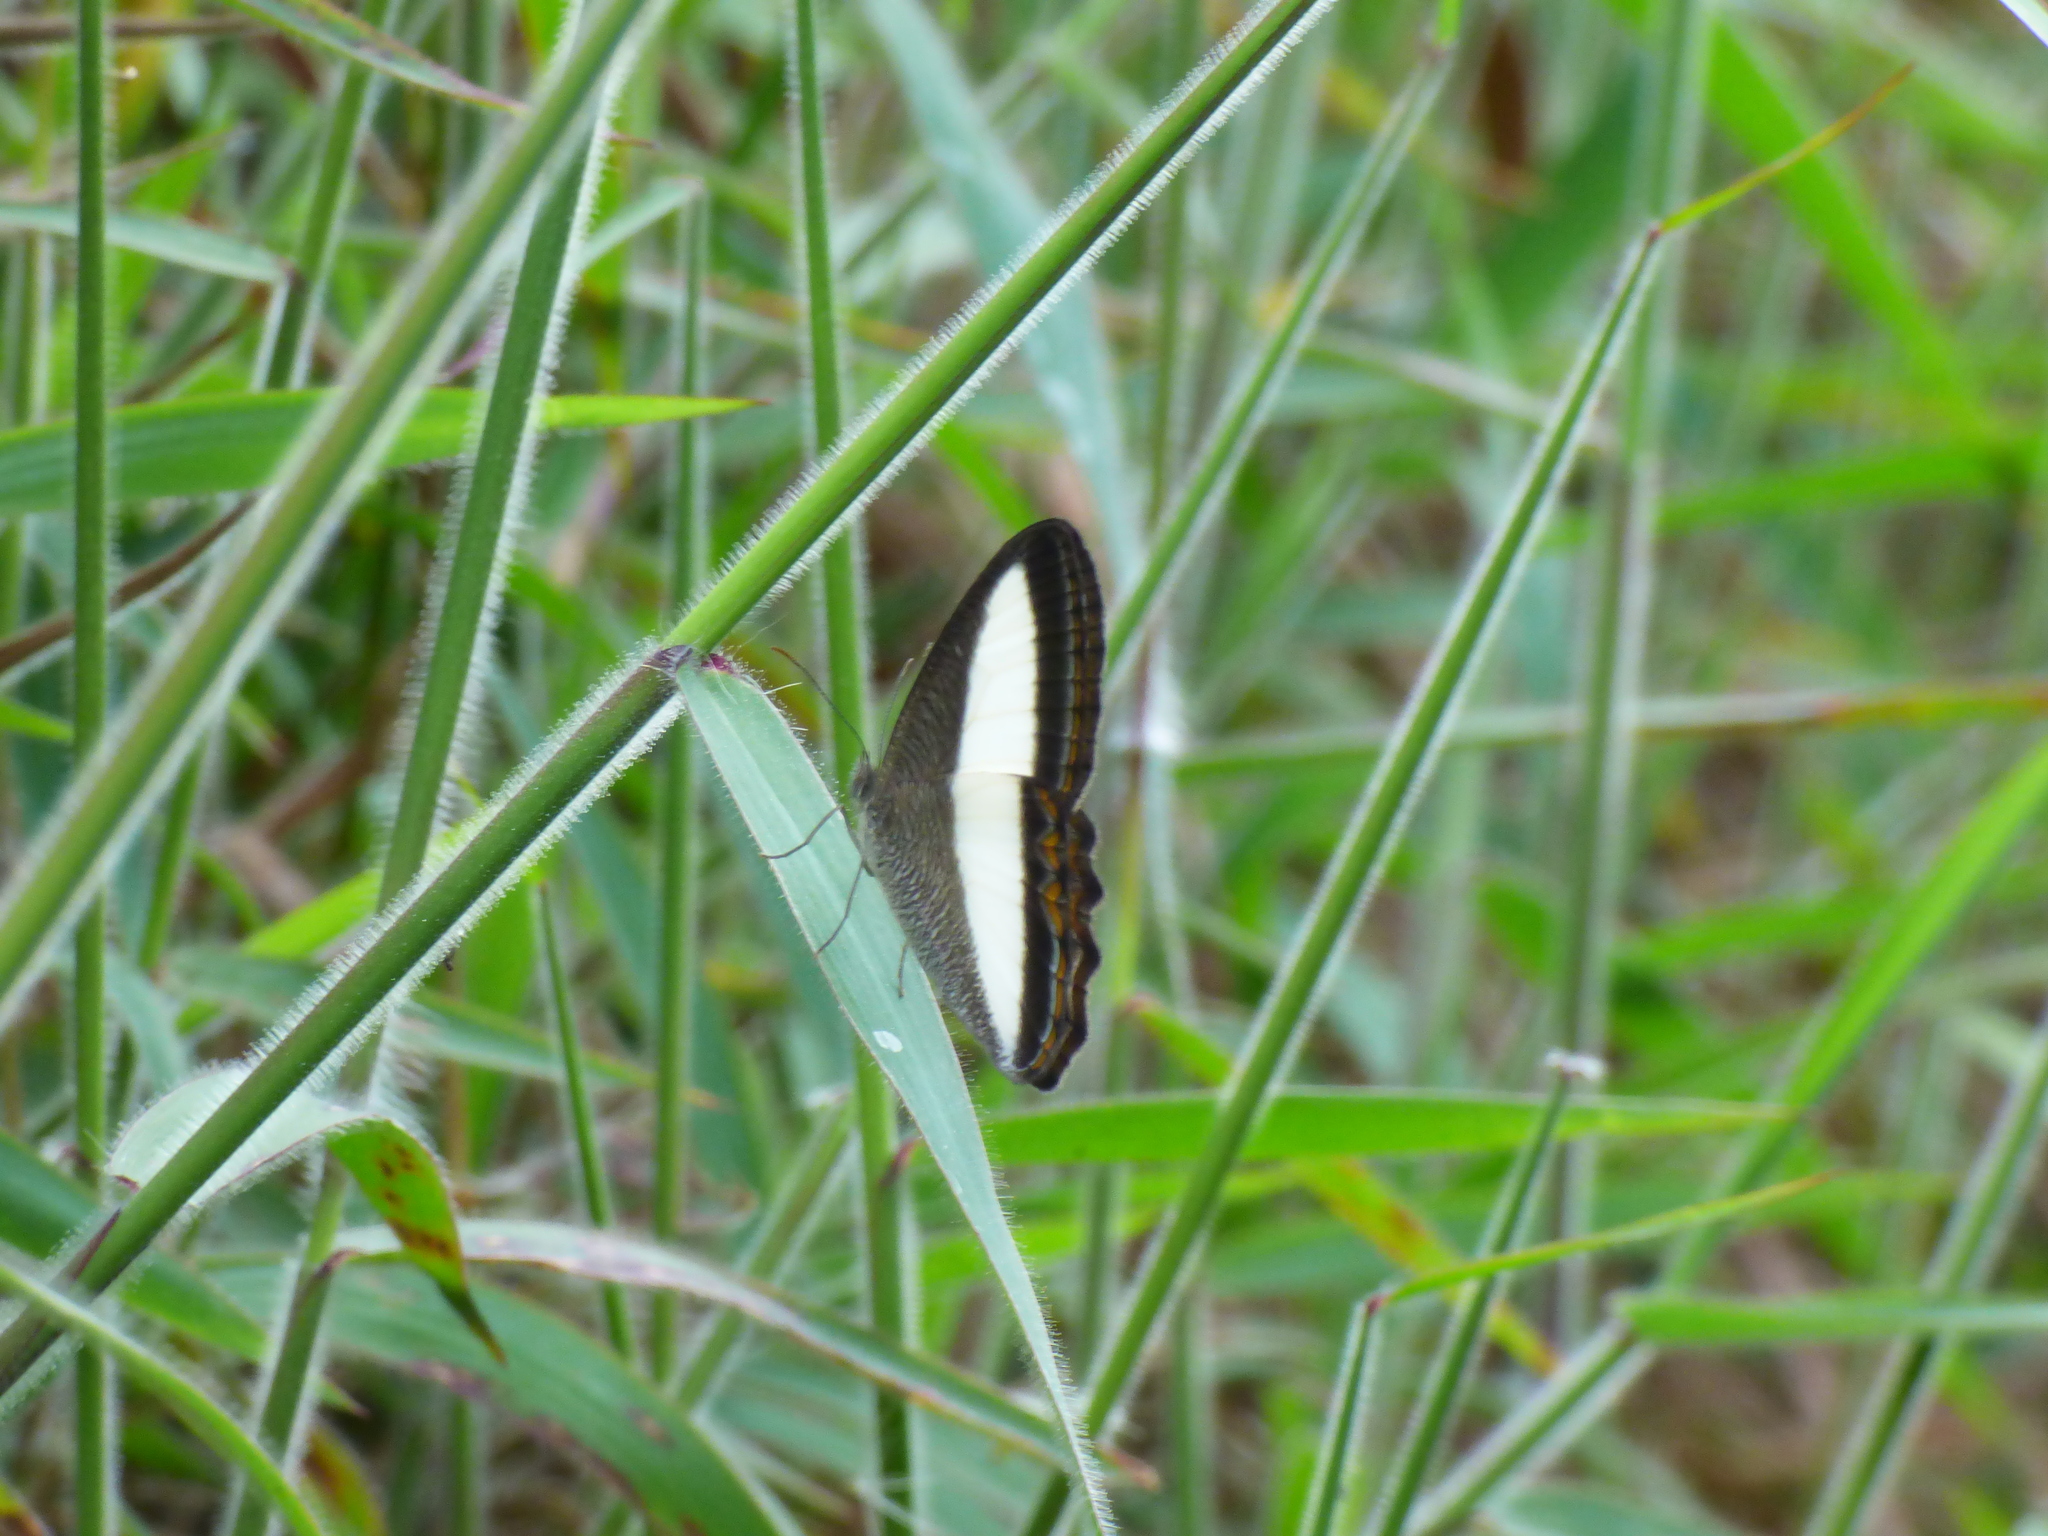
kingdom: Animalia
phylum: Arthropoda
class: Insecta
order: Lepidoptera
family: Nymphalidae
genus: Oressinoma
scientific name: Oressinoma typhla
